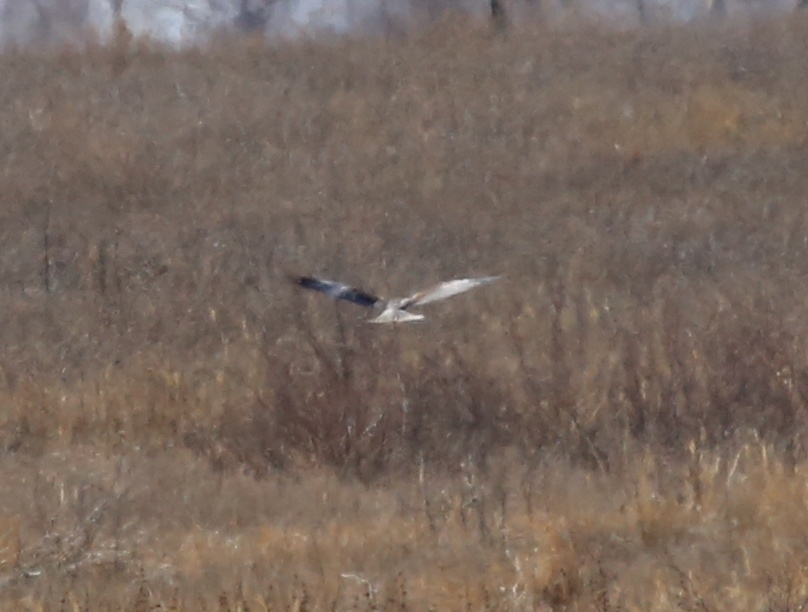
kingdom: Animalia
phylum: Chordata
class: Aves
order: Accipitriformes
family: Accipitridae
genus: Circus
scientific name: Circus aeruginosus
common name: Western marsh harrier
